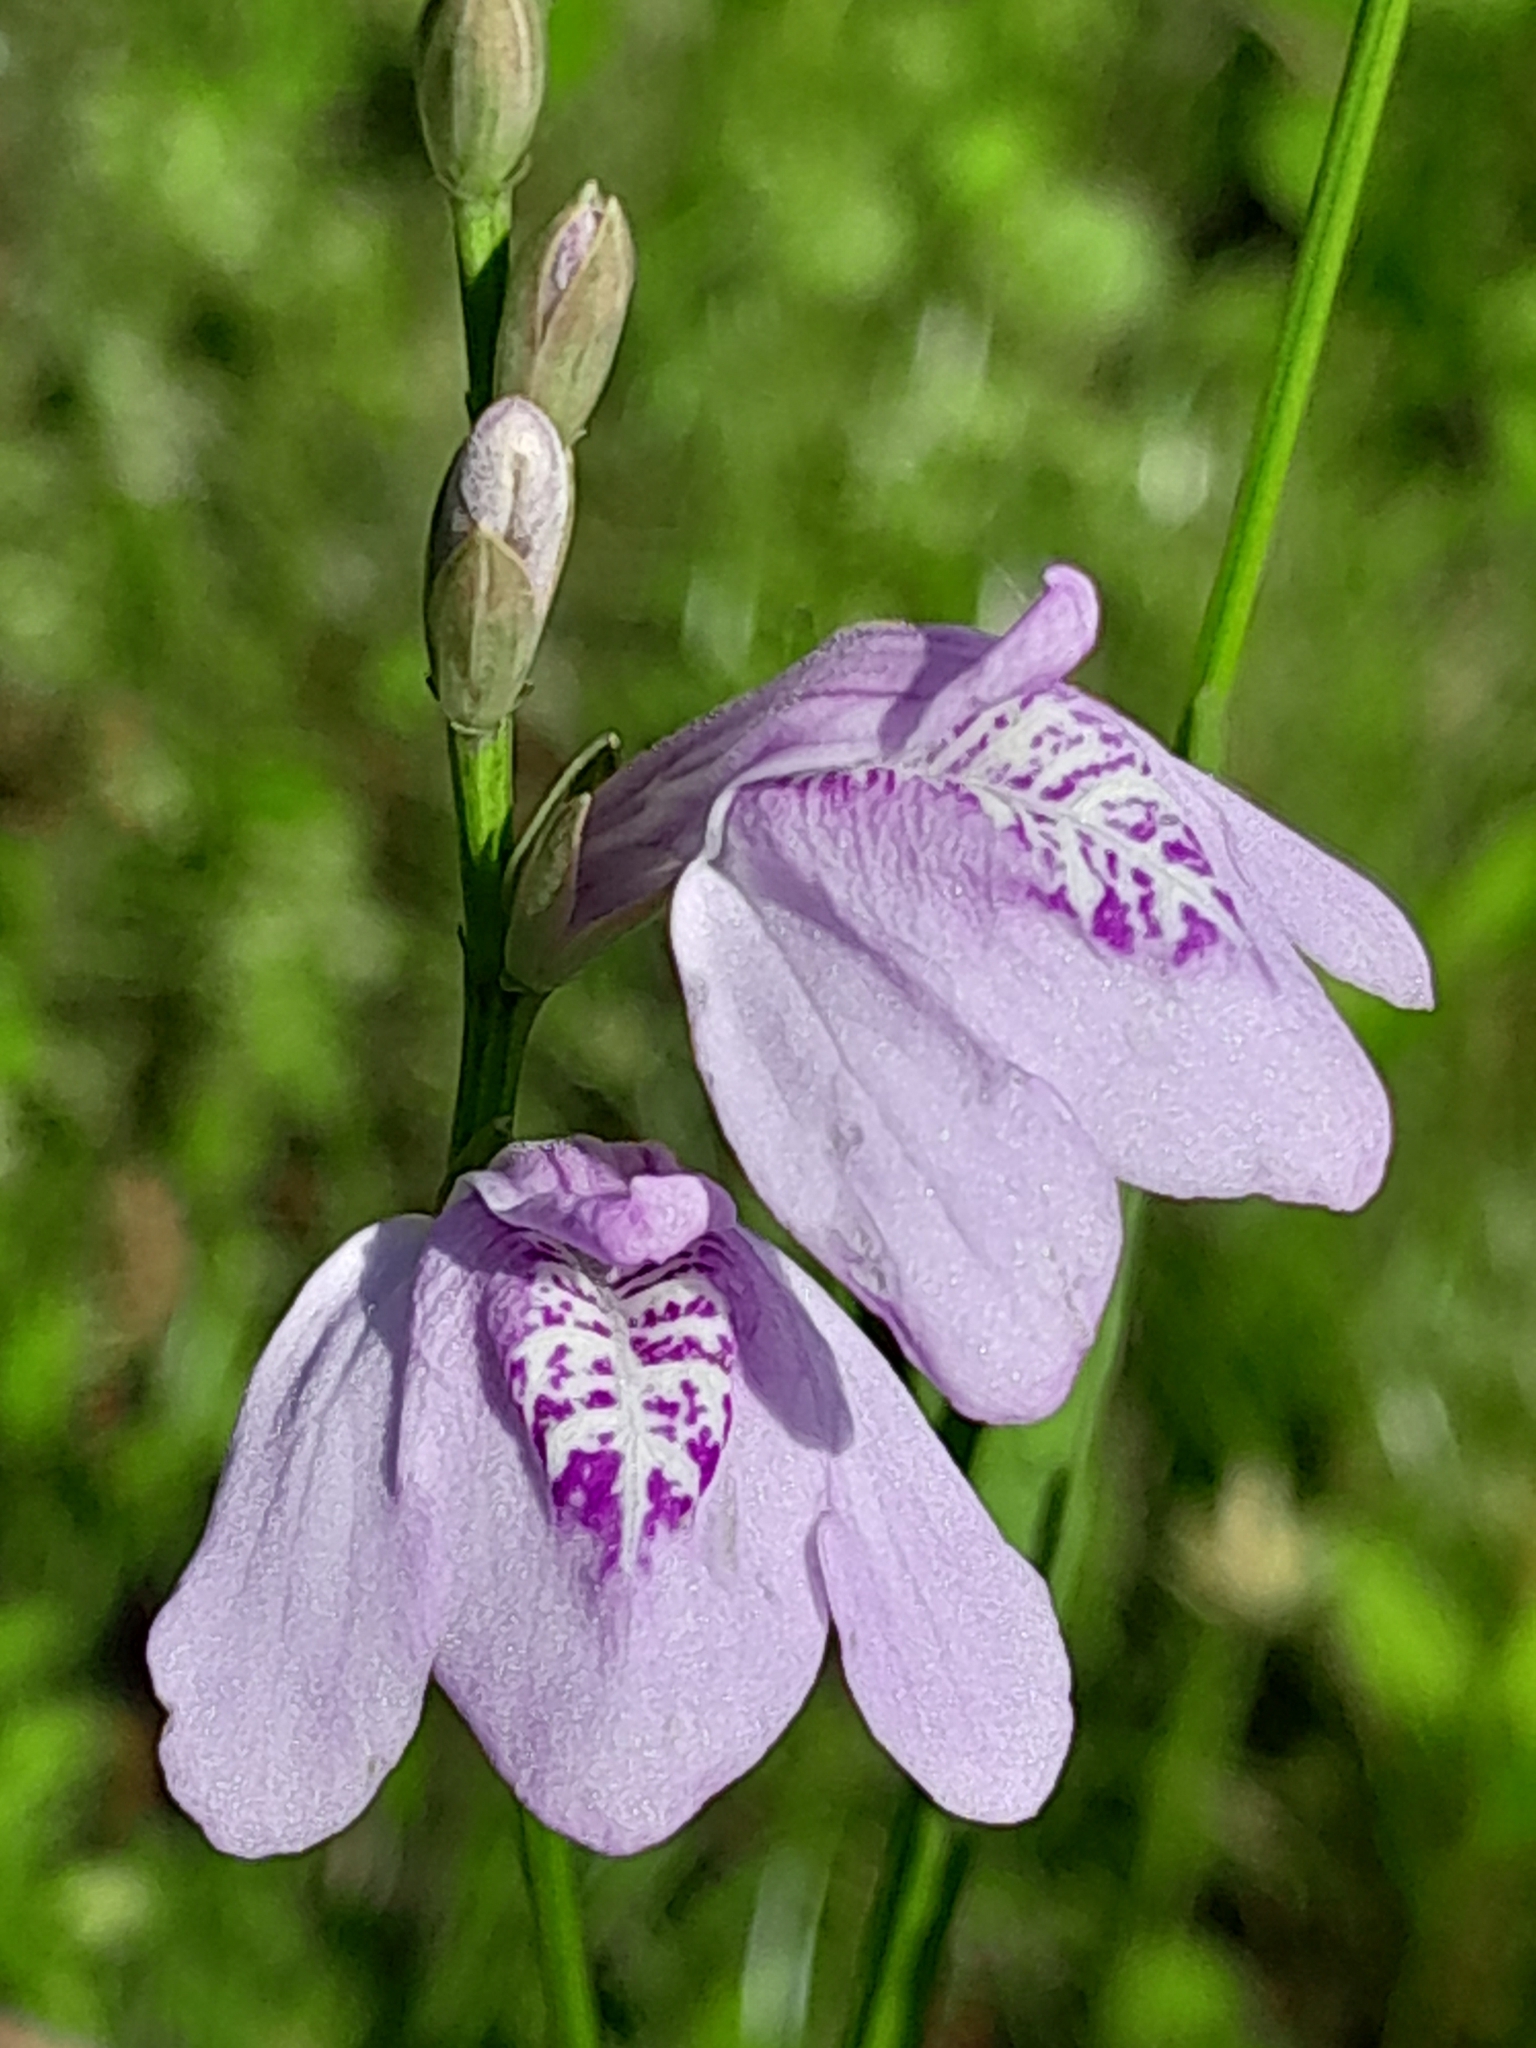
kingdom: Plantae
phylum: Tracheophyta
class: Magnoliopsida
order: Lamiales
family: Acanthaceae
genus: Dianthera
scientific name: Dianthera laevilinguis
